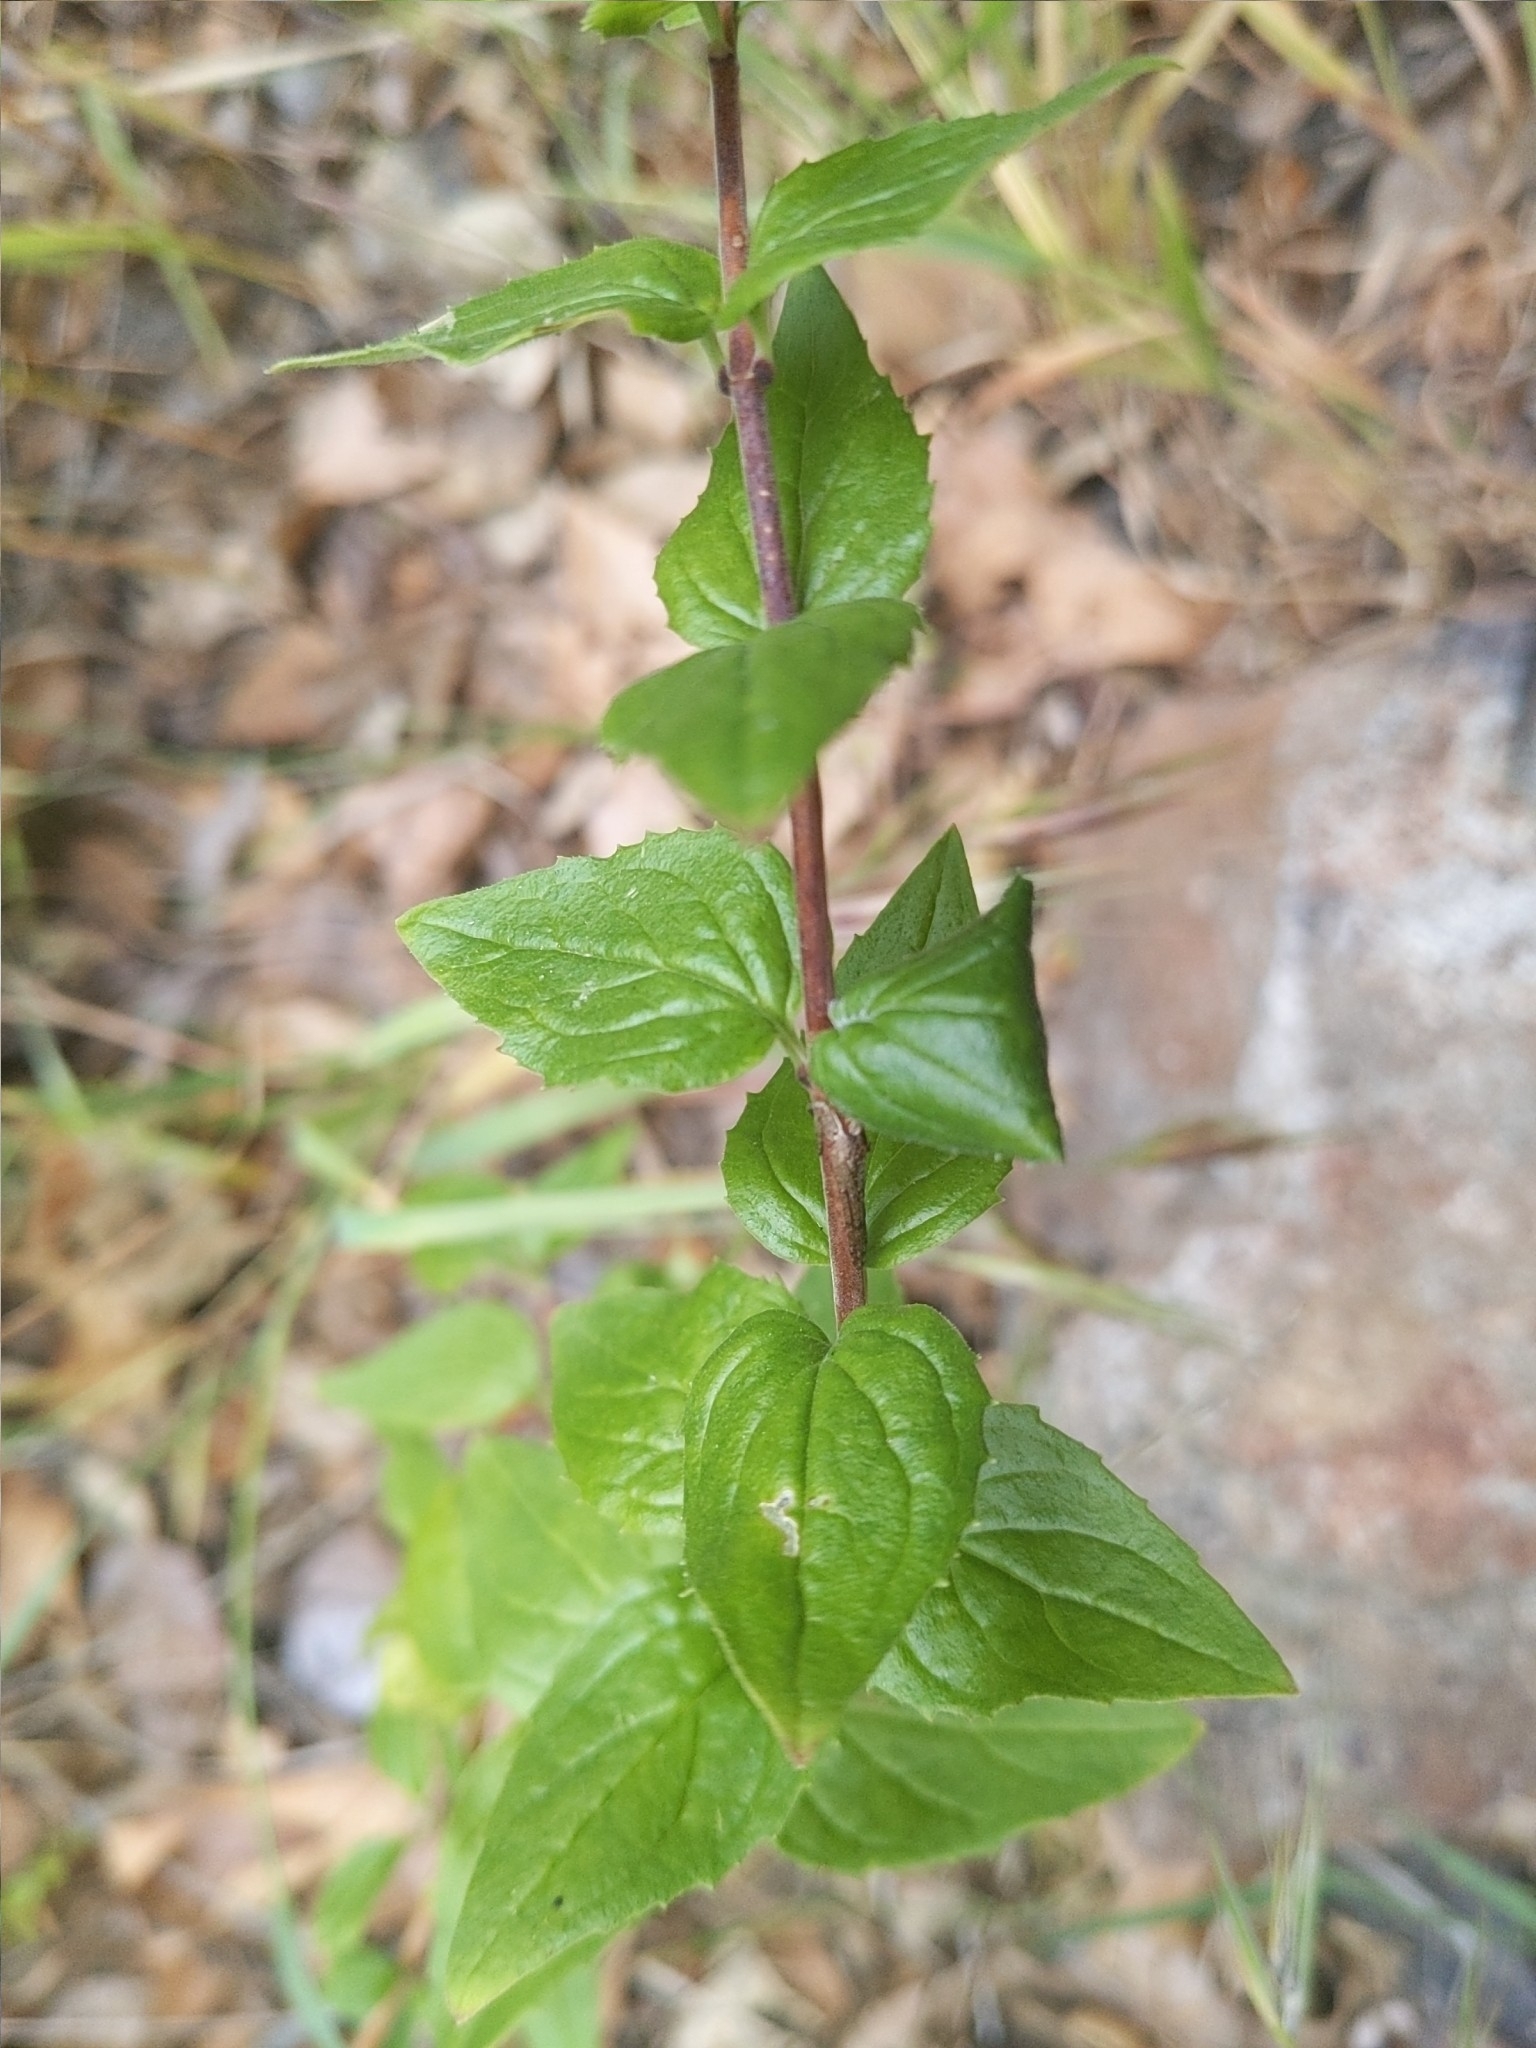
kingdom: Plantae
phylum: Tracheophyta
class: Magnoliopsida
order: Lamiales
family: Plantaginaceae
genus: Keckiella
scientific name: Keckiella cordifolia
